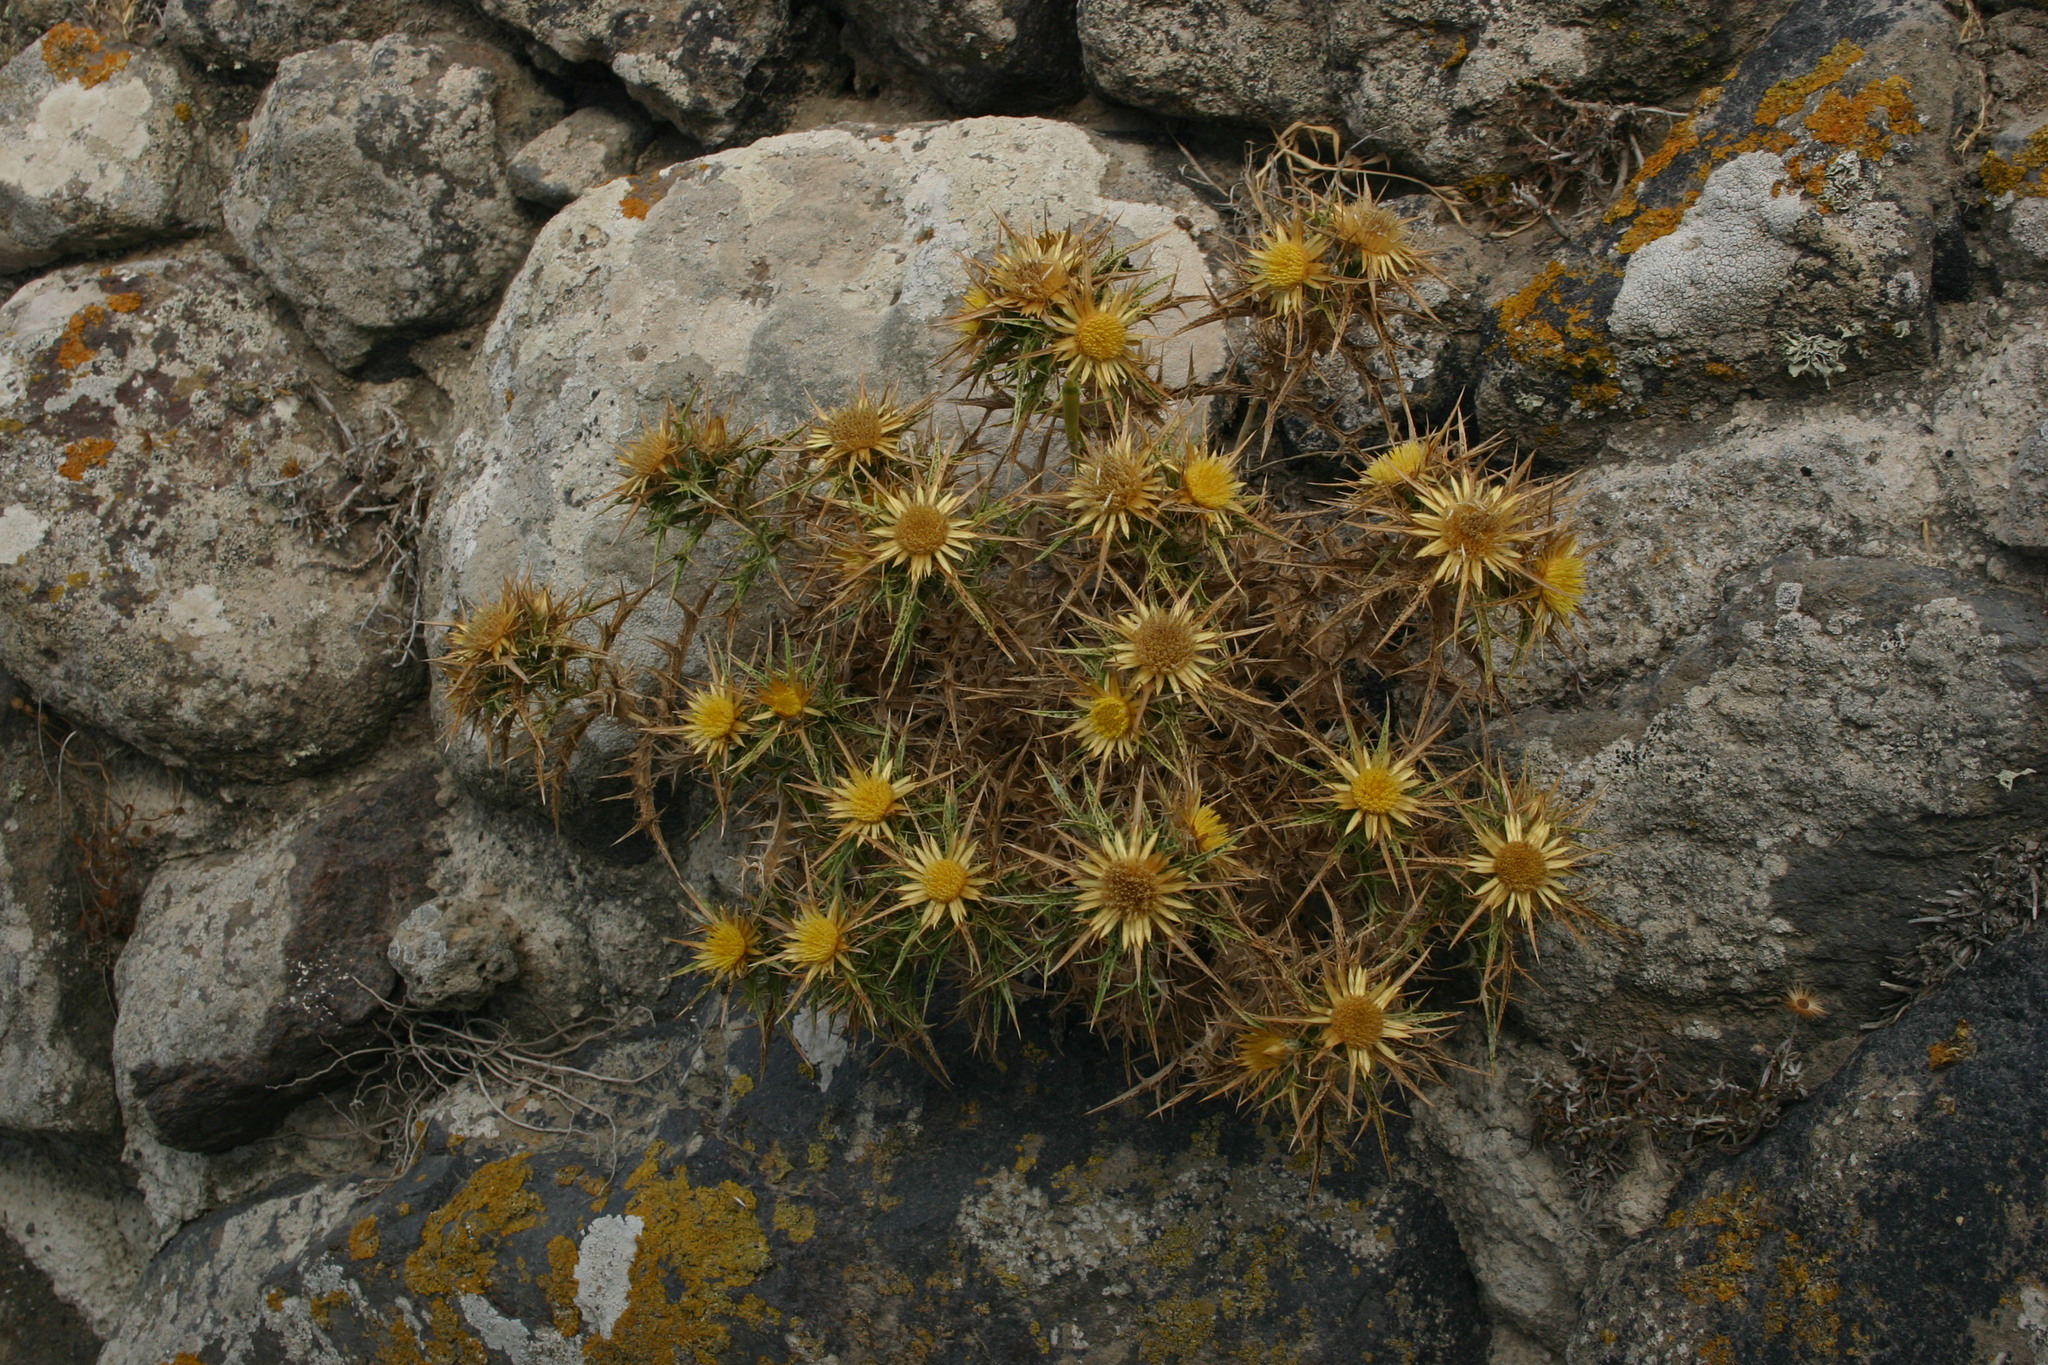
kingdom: Plantae
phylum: Tracheophyta
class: Magnoliopsida
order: Asterales
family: Asteraceae
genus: Carlina
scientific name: Carlina graeca
